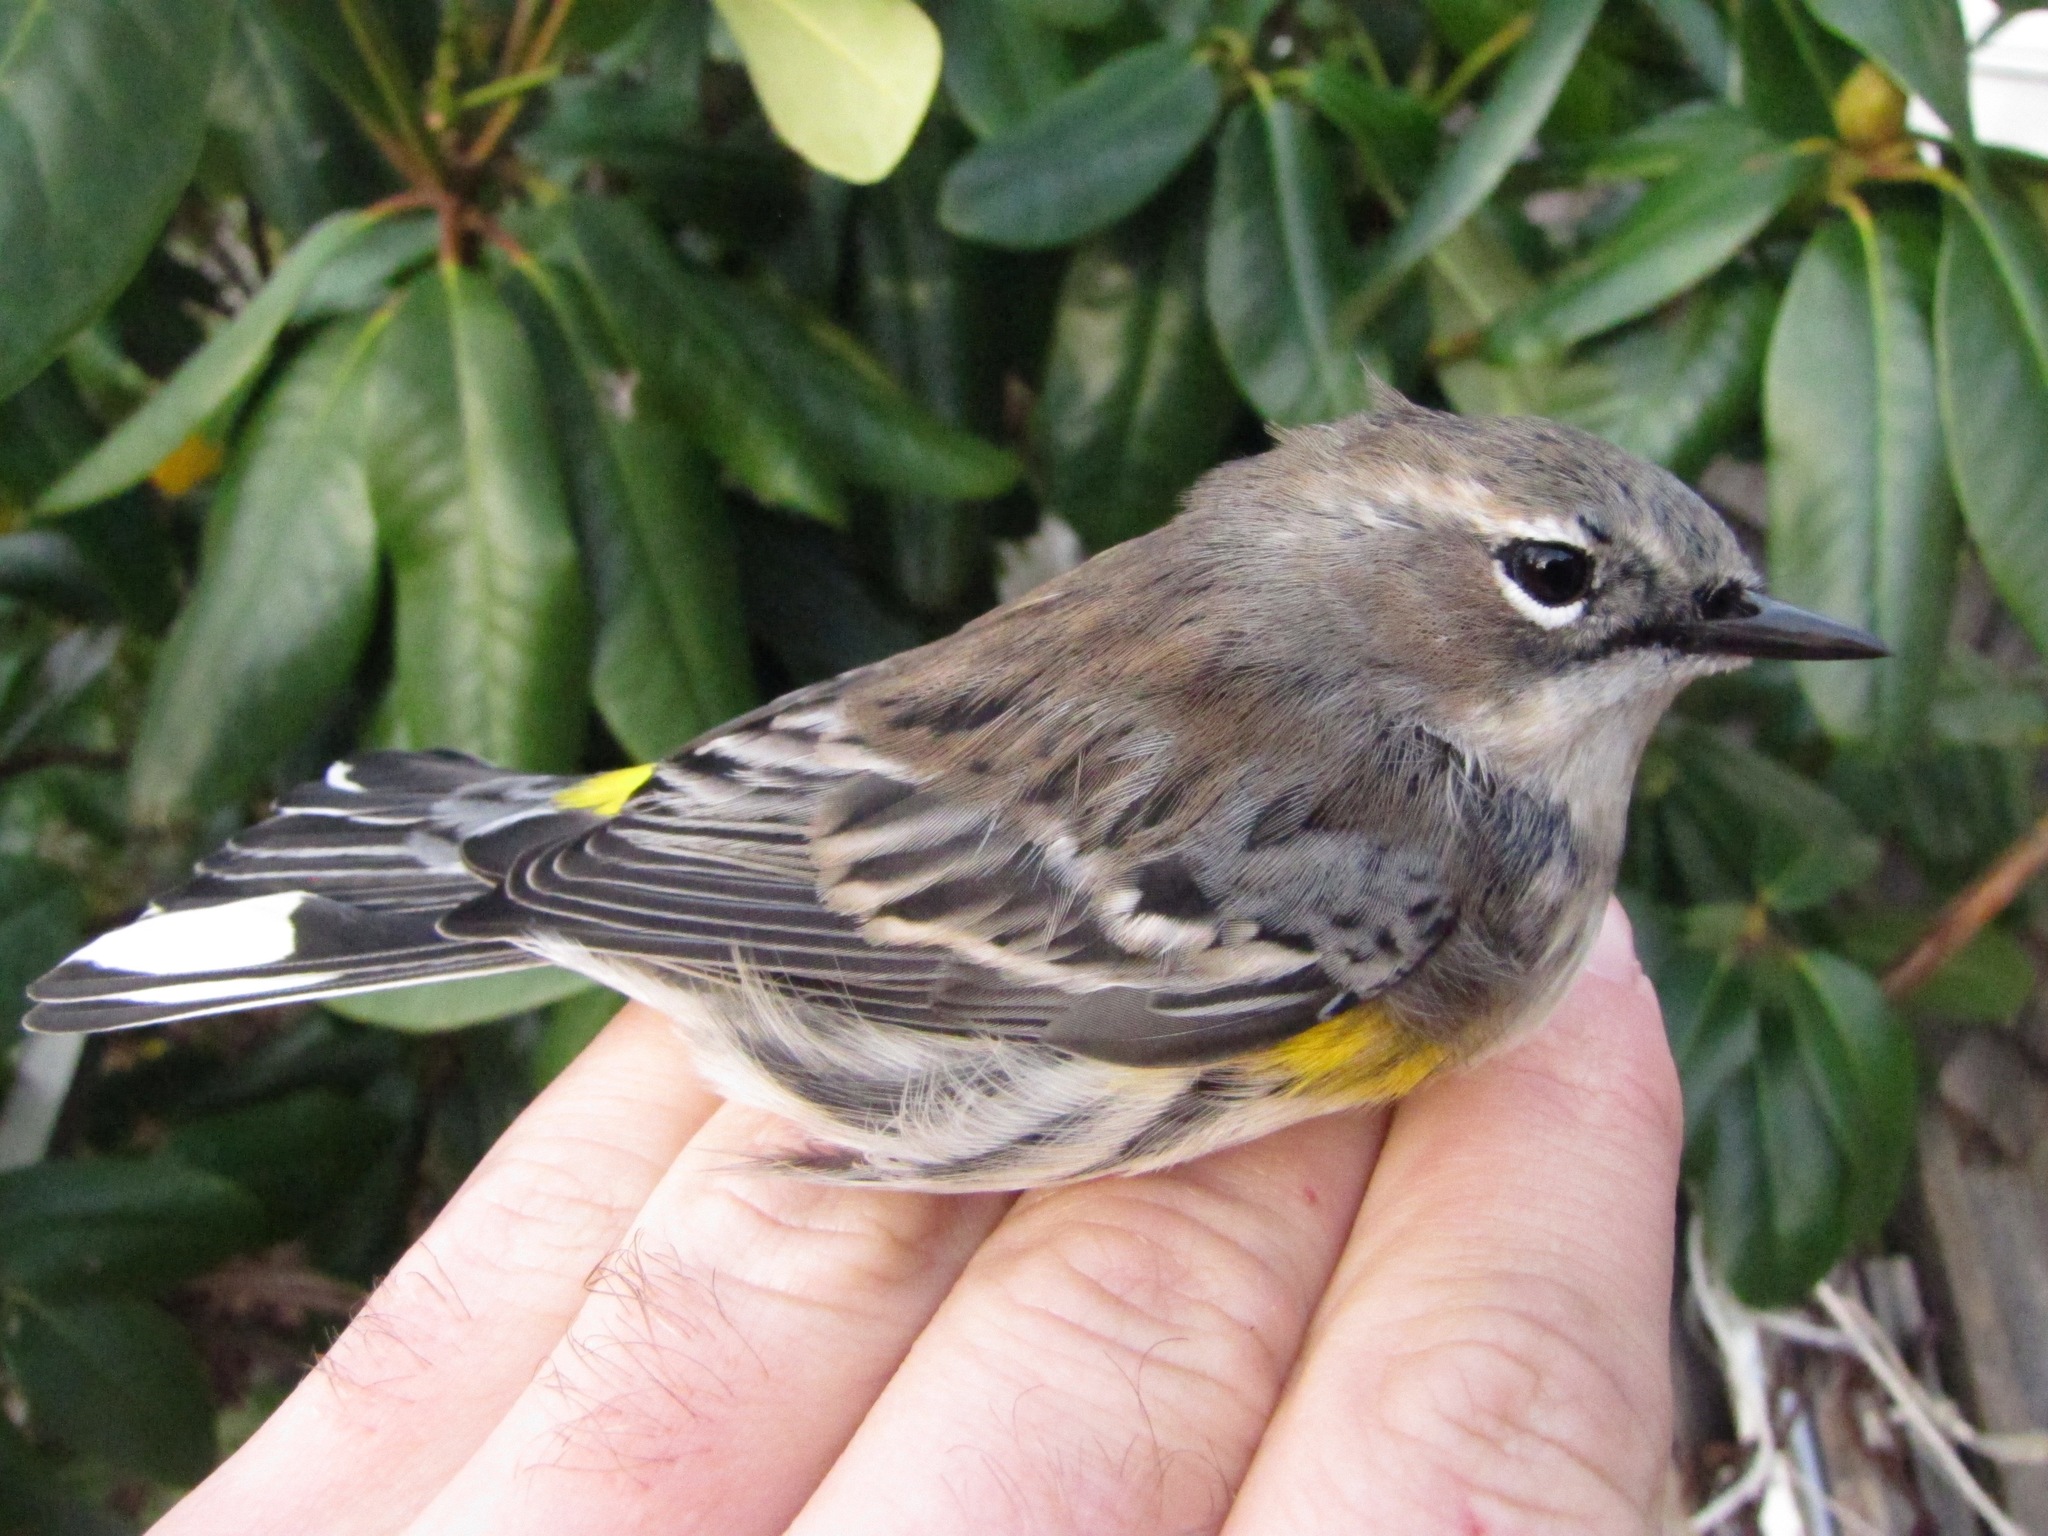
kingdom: Animalia
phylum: Chordata
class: Aves
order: Passeriformes
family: Parulidae
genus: Setophaga
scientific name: Setophaga coronata
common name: Myrtle warbler
